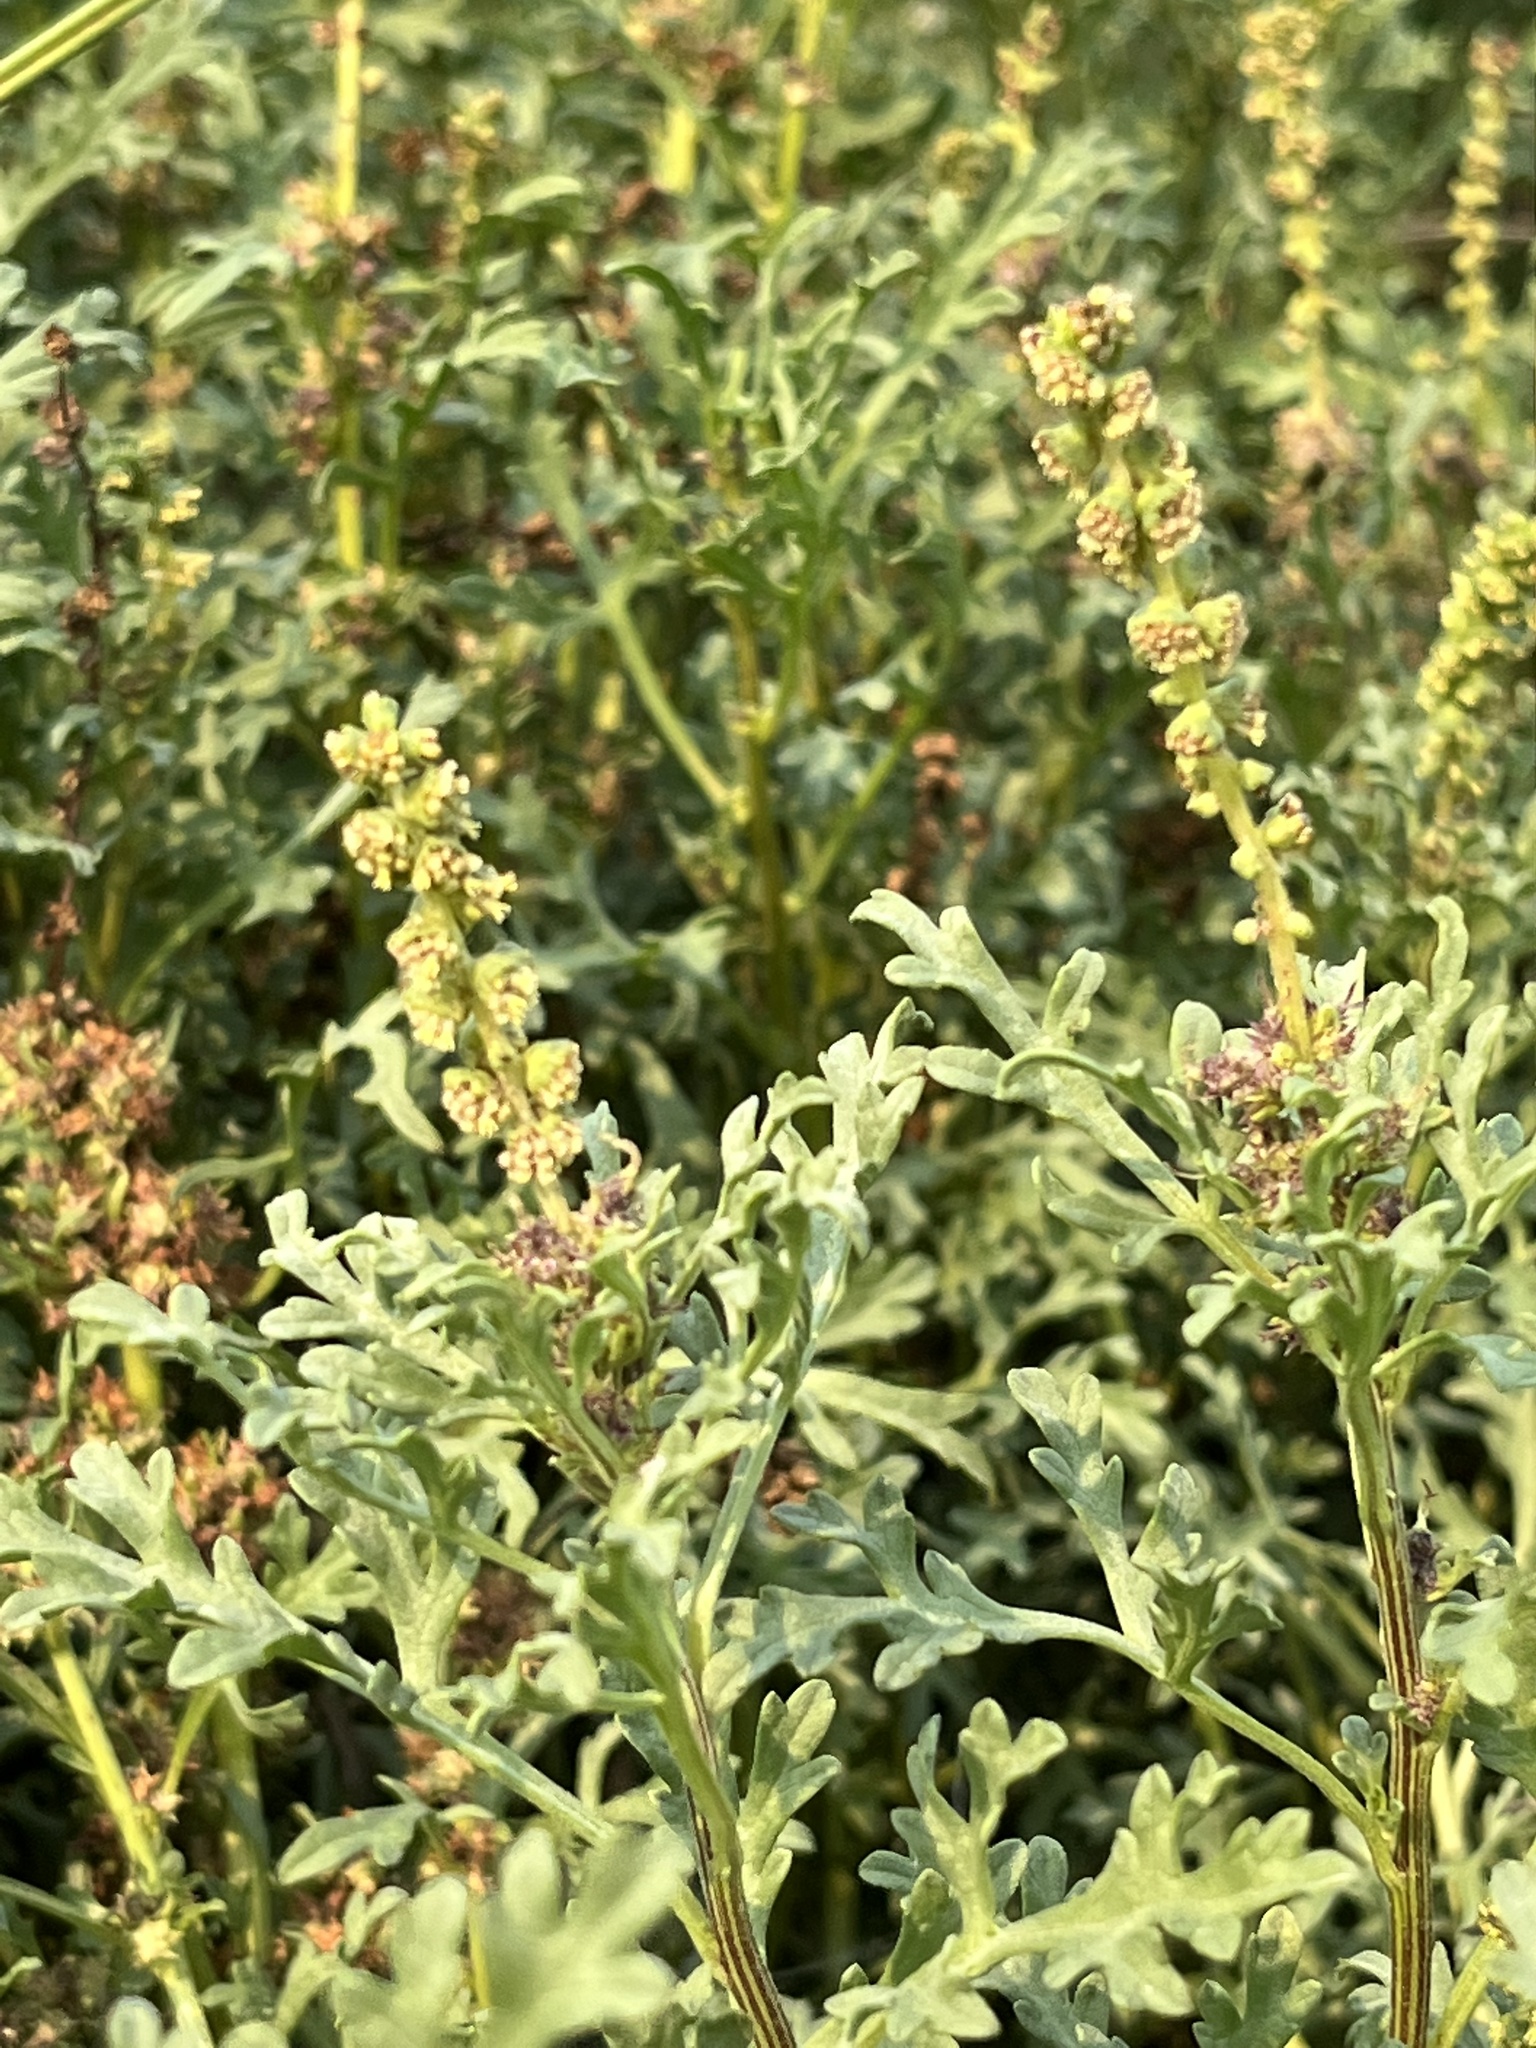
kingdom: Plantae
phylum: Tracheophyta
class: Magnoliopsida
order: Asterales
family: Asteraceae
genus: Ambrosia
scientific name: Ambrosia chamissonis
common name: Beachbur
